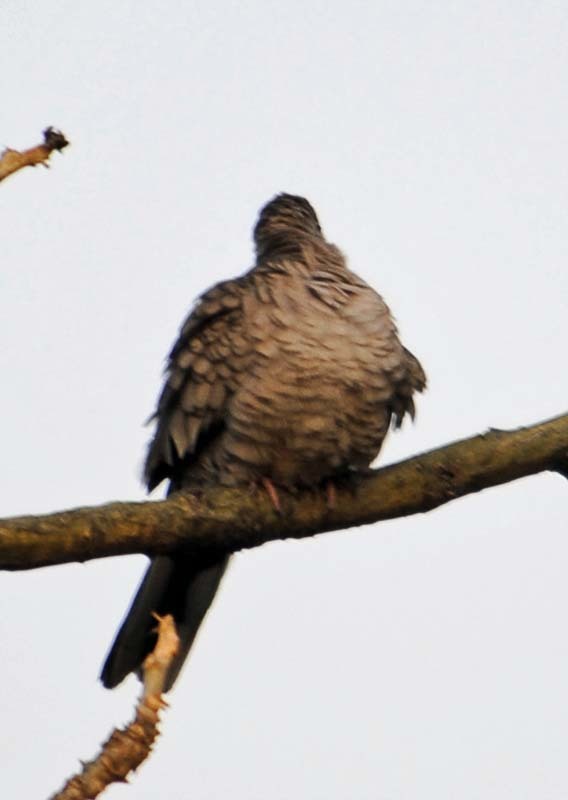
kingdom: Animalia
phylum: Chordata
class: Aves
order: Columbiformes
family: Columbidae
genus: Columbina
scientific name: Columbina inca
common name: Inca dove
